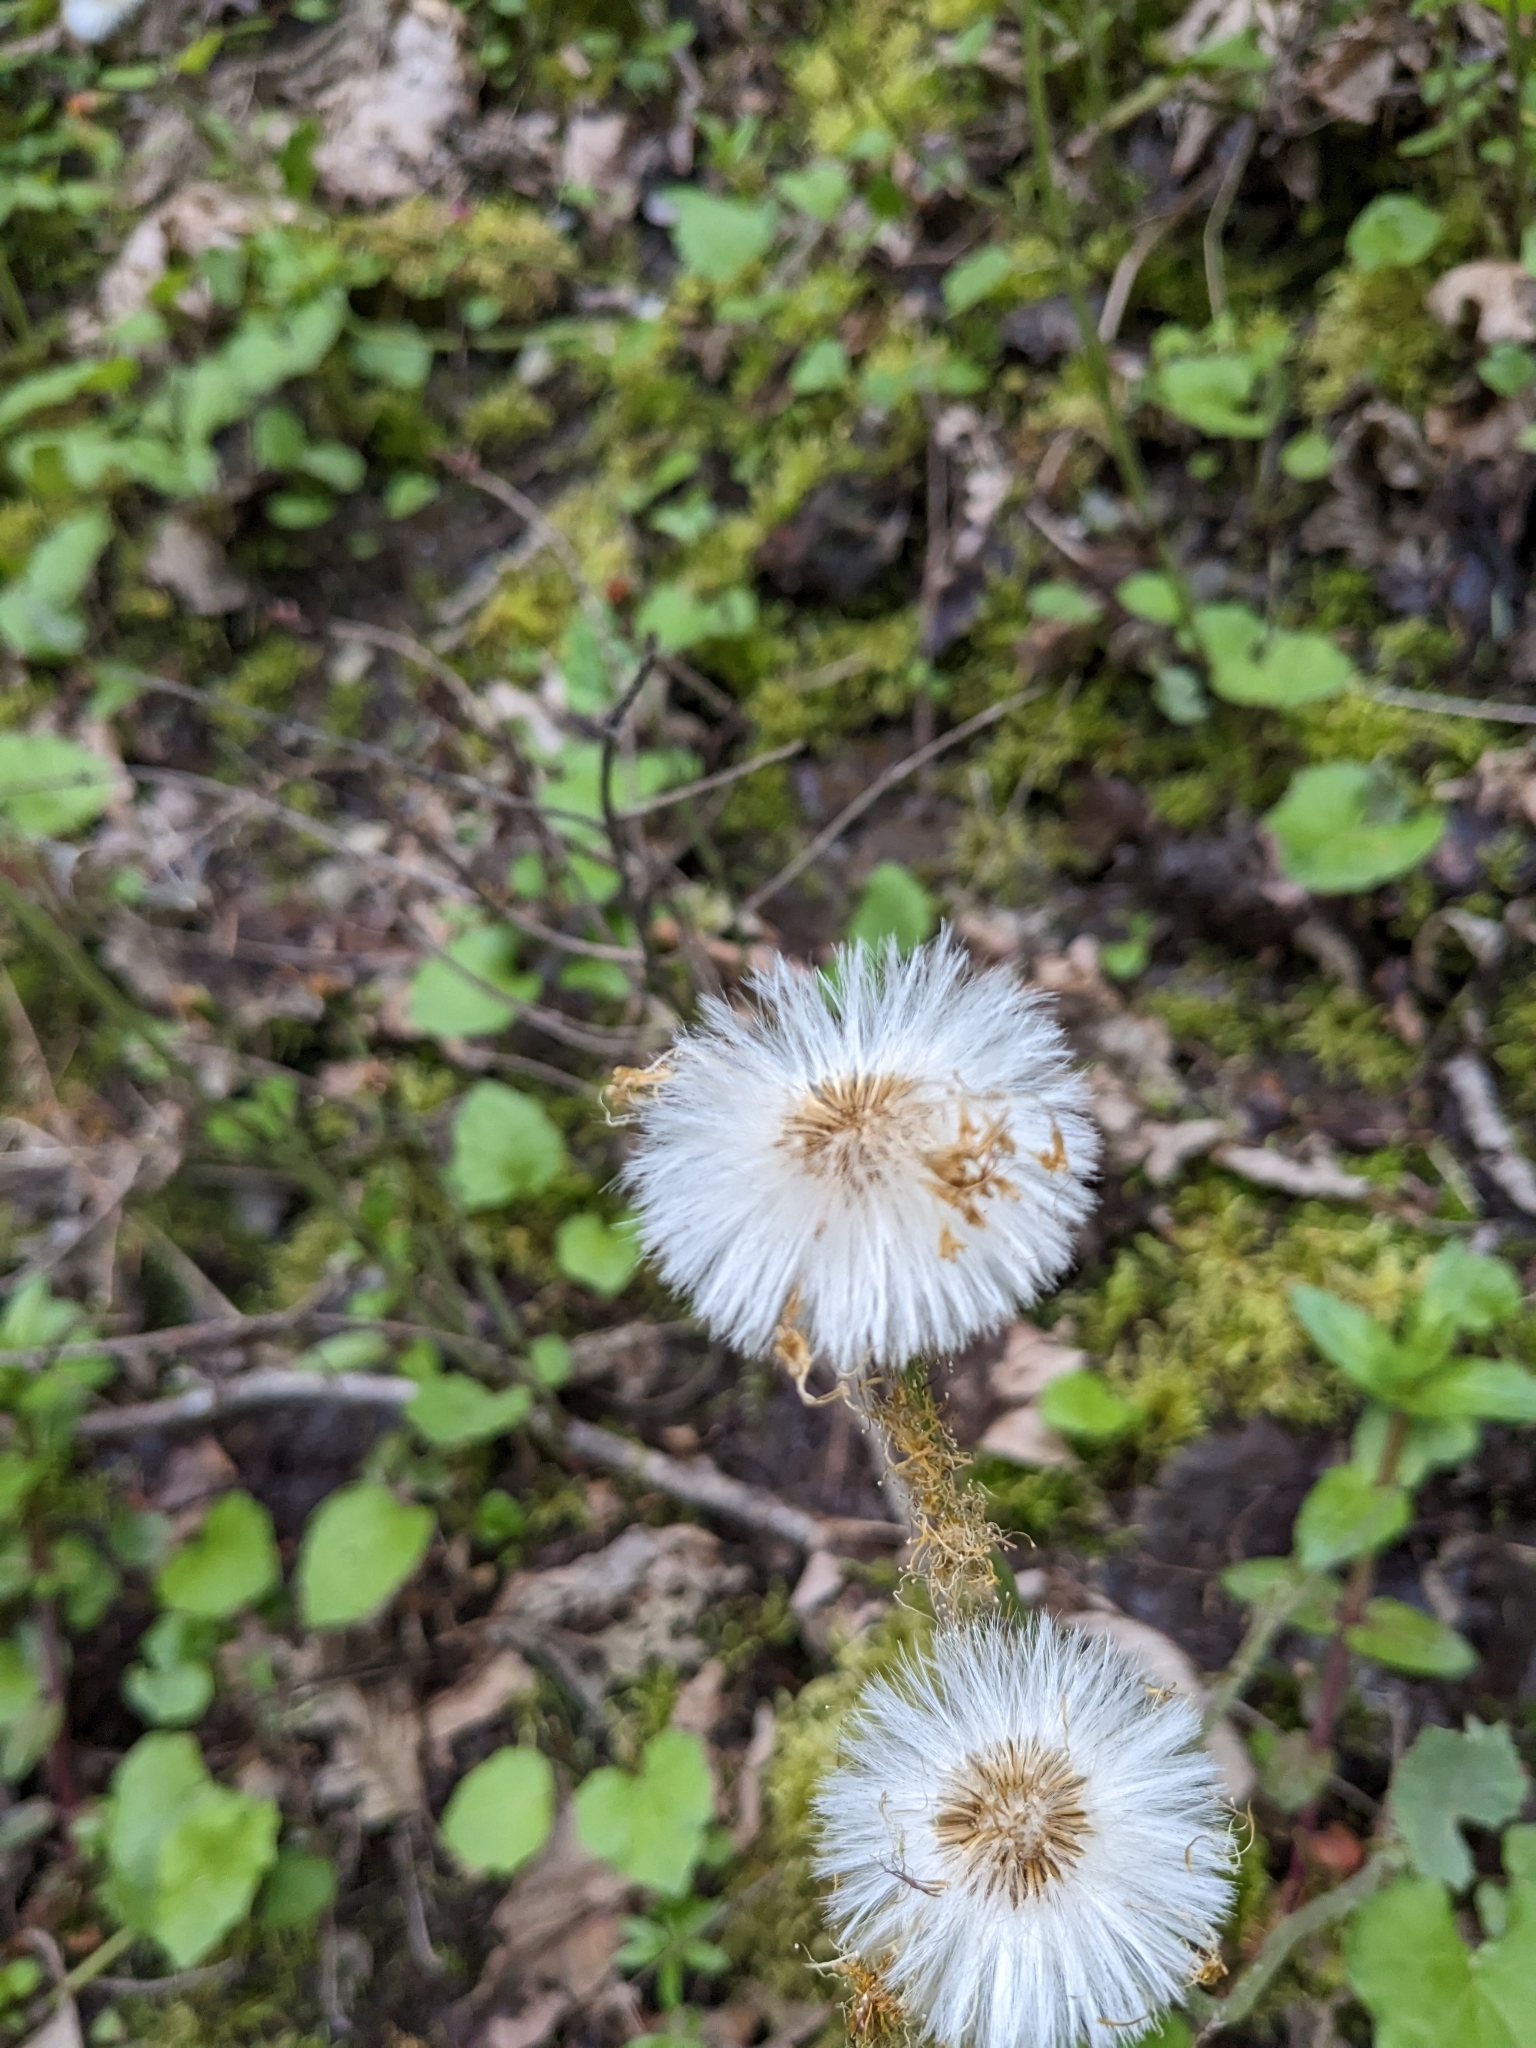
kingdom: Plantae
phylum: Tracheophyta
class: Magnoliopsida
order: Asterales
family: Asteraceae
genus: Tussilago
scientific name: Tussilago farfara
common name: Coltsfoot
